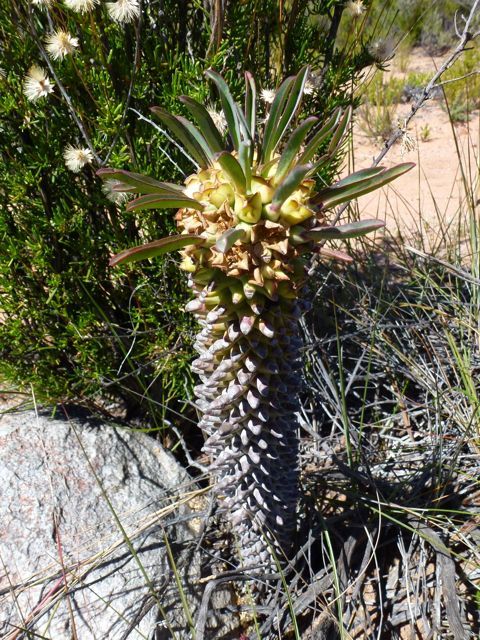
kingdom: Plantae
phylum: Tracheophyta
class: Magnoliopsida
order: Malpighiales
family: Euphorbiaceae
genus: Euphorbia
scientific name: Euphorbia clandestina
